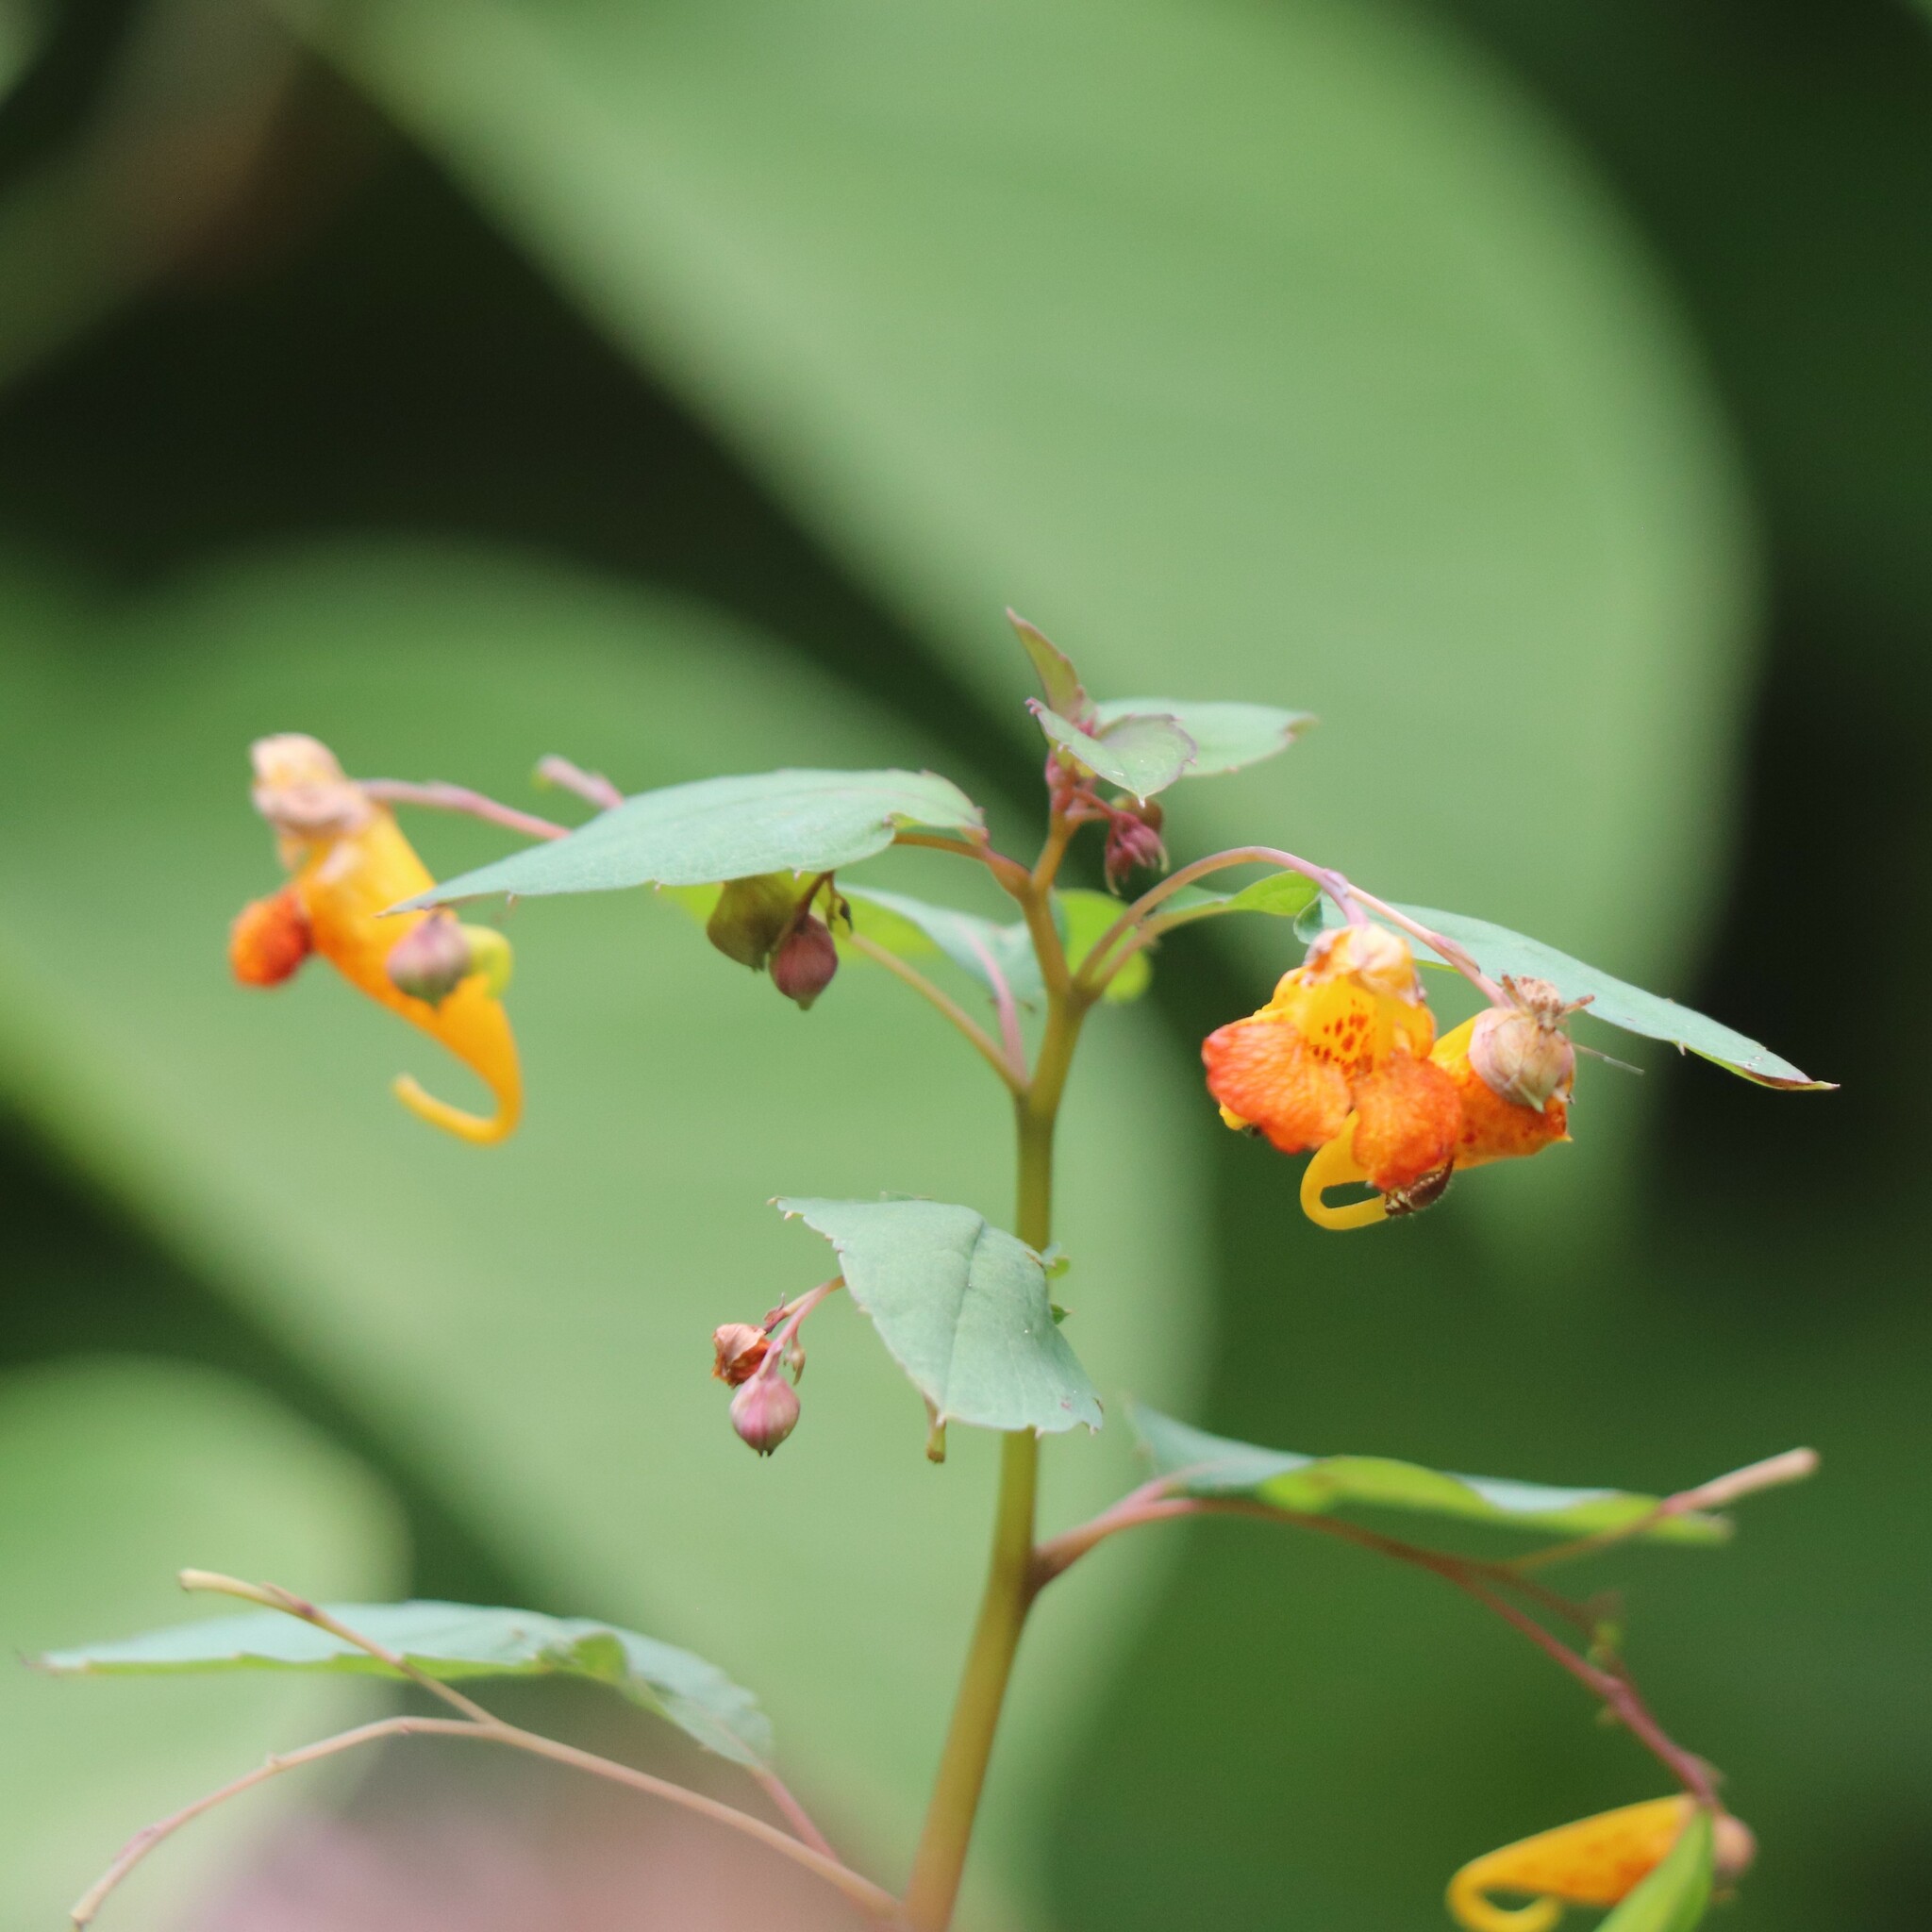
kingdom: Plantae
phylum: Tracheophyta
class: Magnoliopsida
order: Ericales
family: Balsaminaceae
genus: Impatiens
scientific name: Impatiens capensis
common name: Orange balsam
